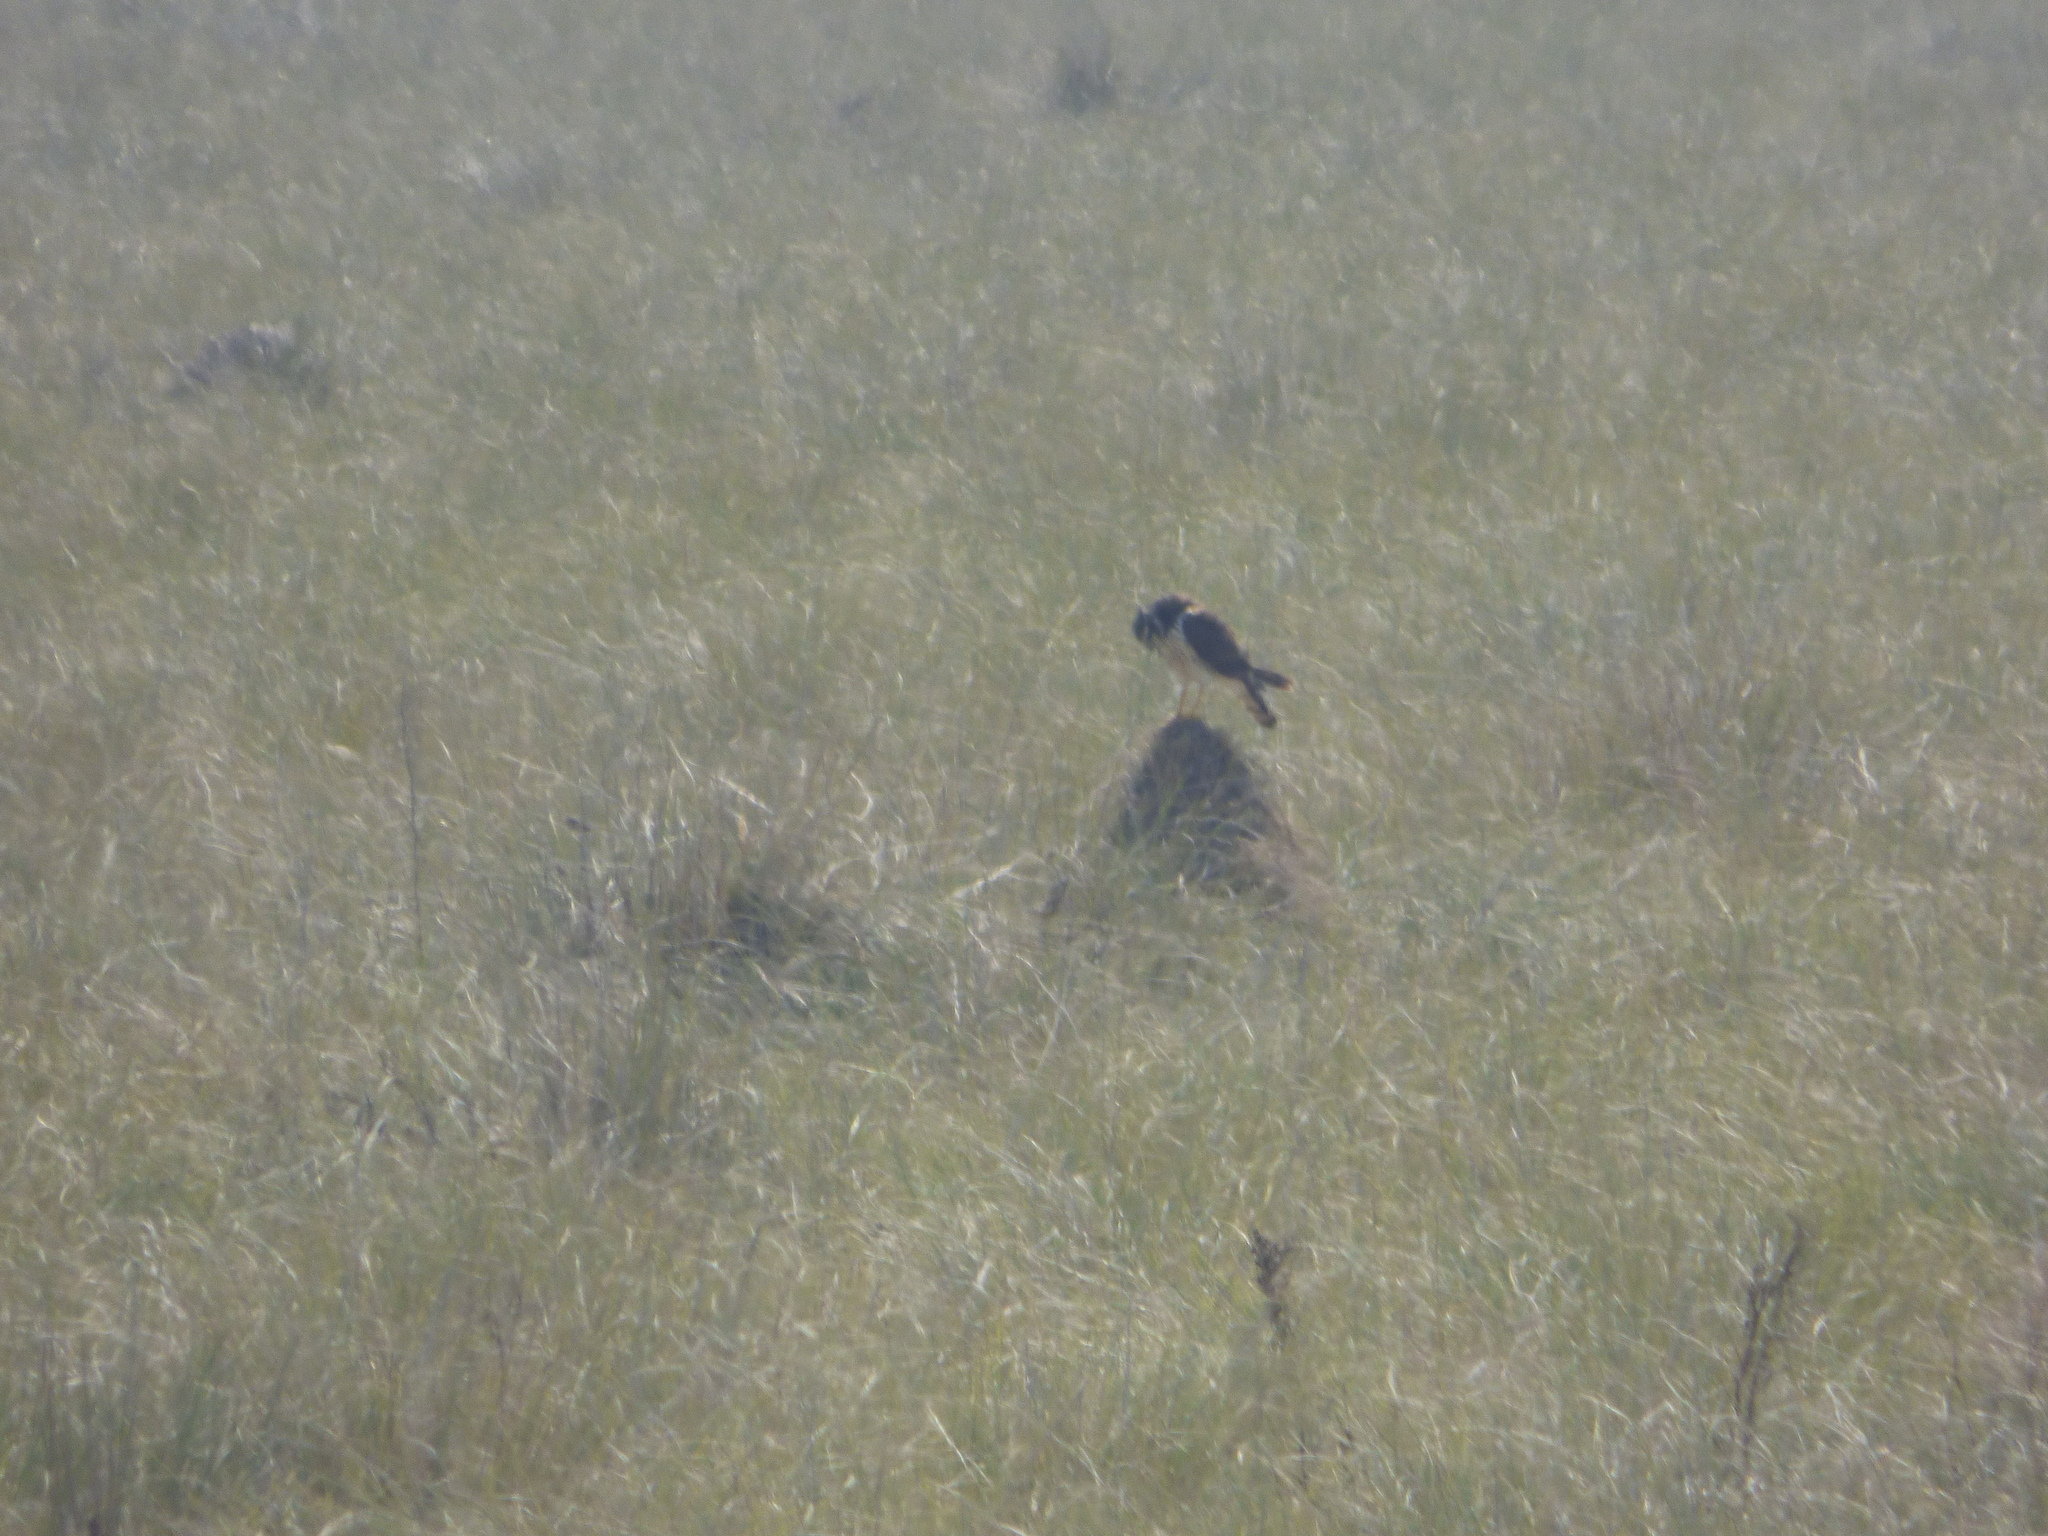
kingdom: Animalia
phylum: Chordata
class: Aves
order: Accipitriformes
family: Accipitridae
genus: Circus
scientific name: Circus buffoni
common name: Long-winged harrier
